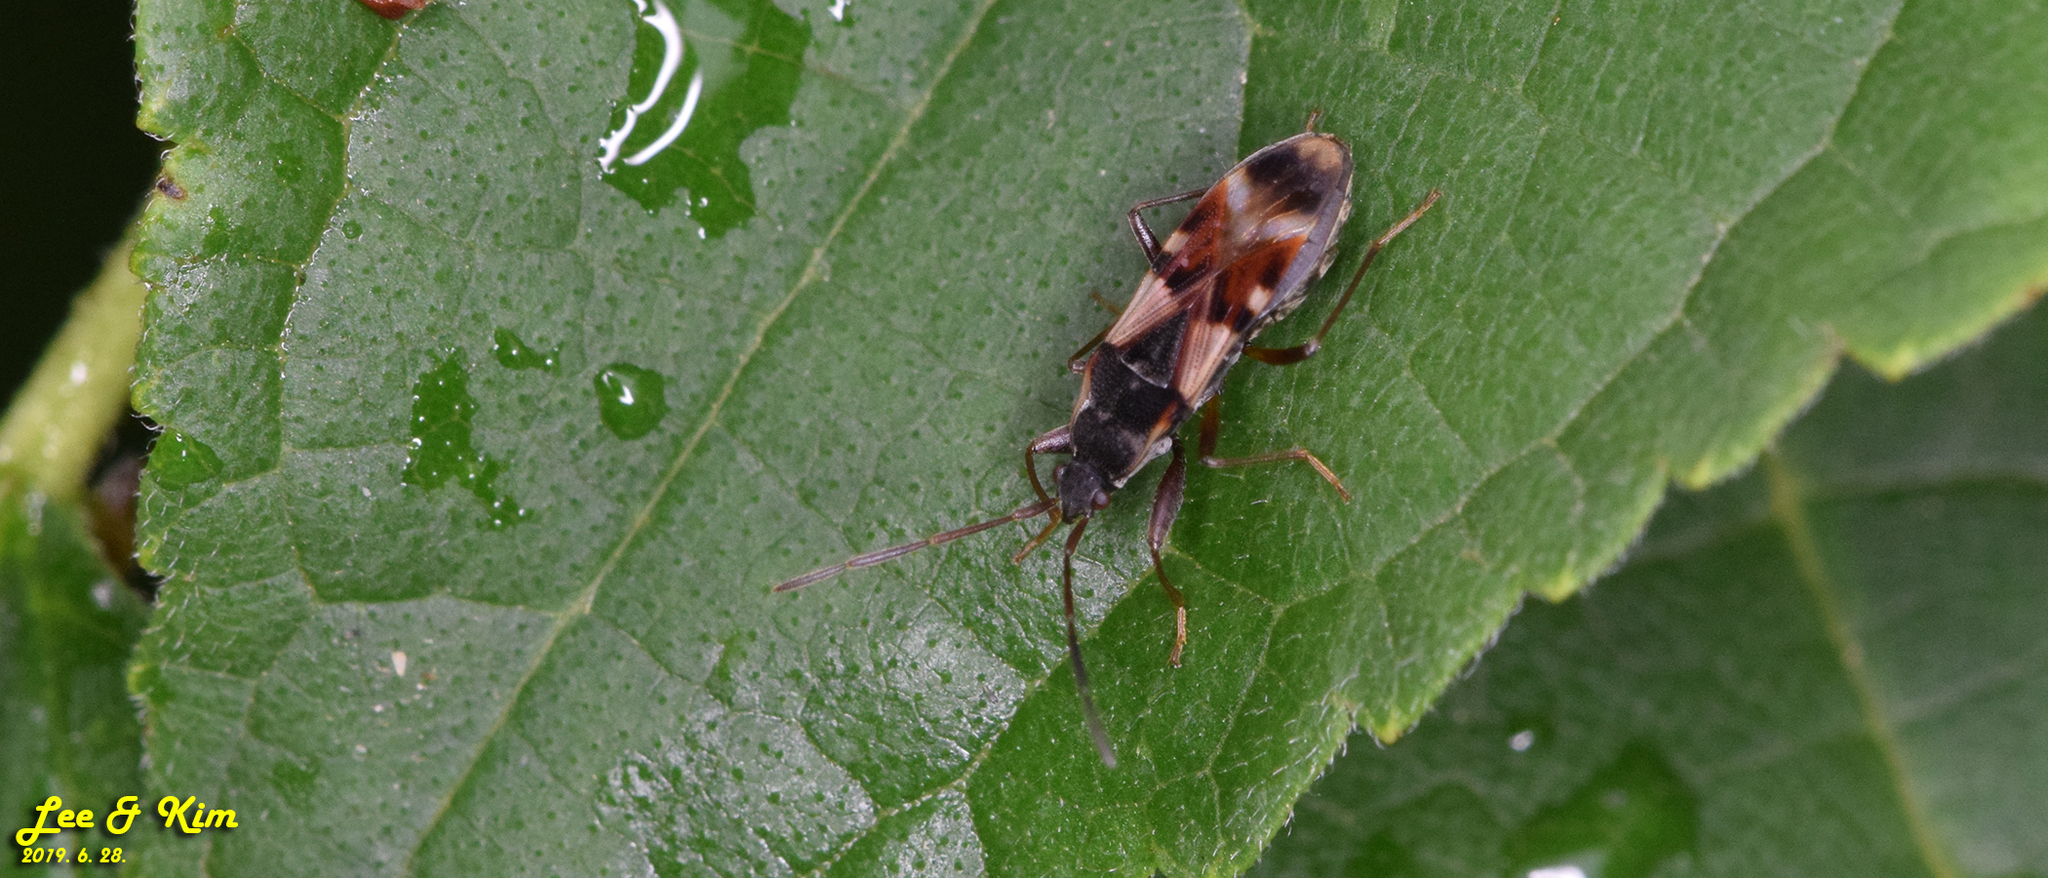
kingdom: Animalia
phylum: Arthropoda
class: Insecta
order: Hemiptera
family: Rhyparochromidae
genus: Paradieuches
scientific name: Paradieuches dissimilis
